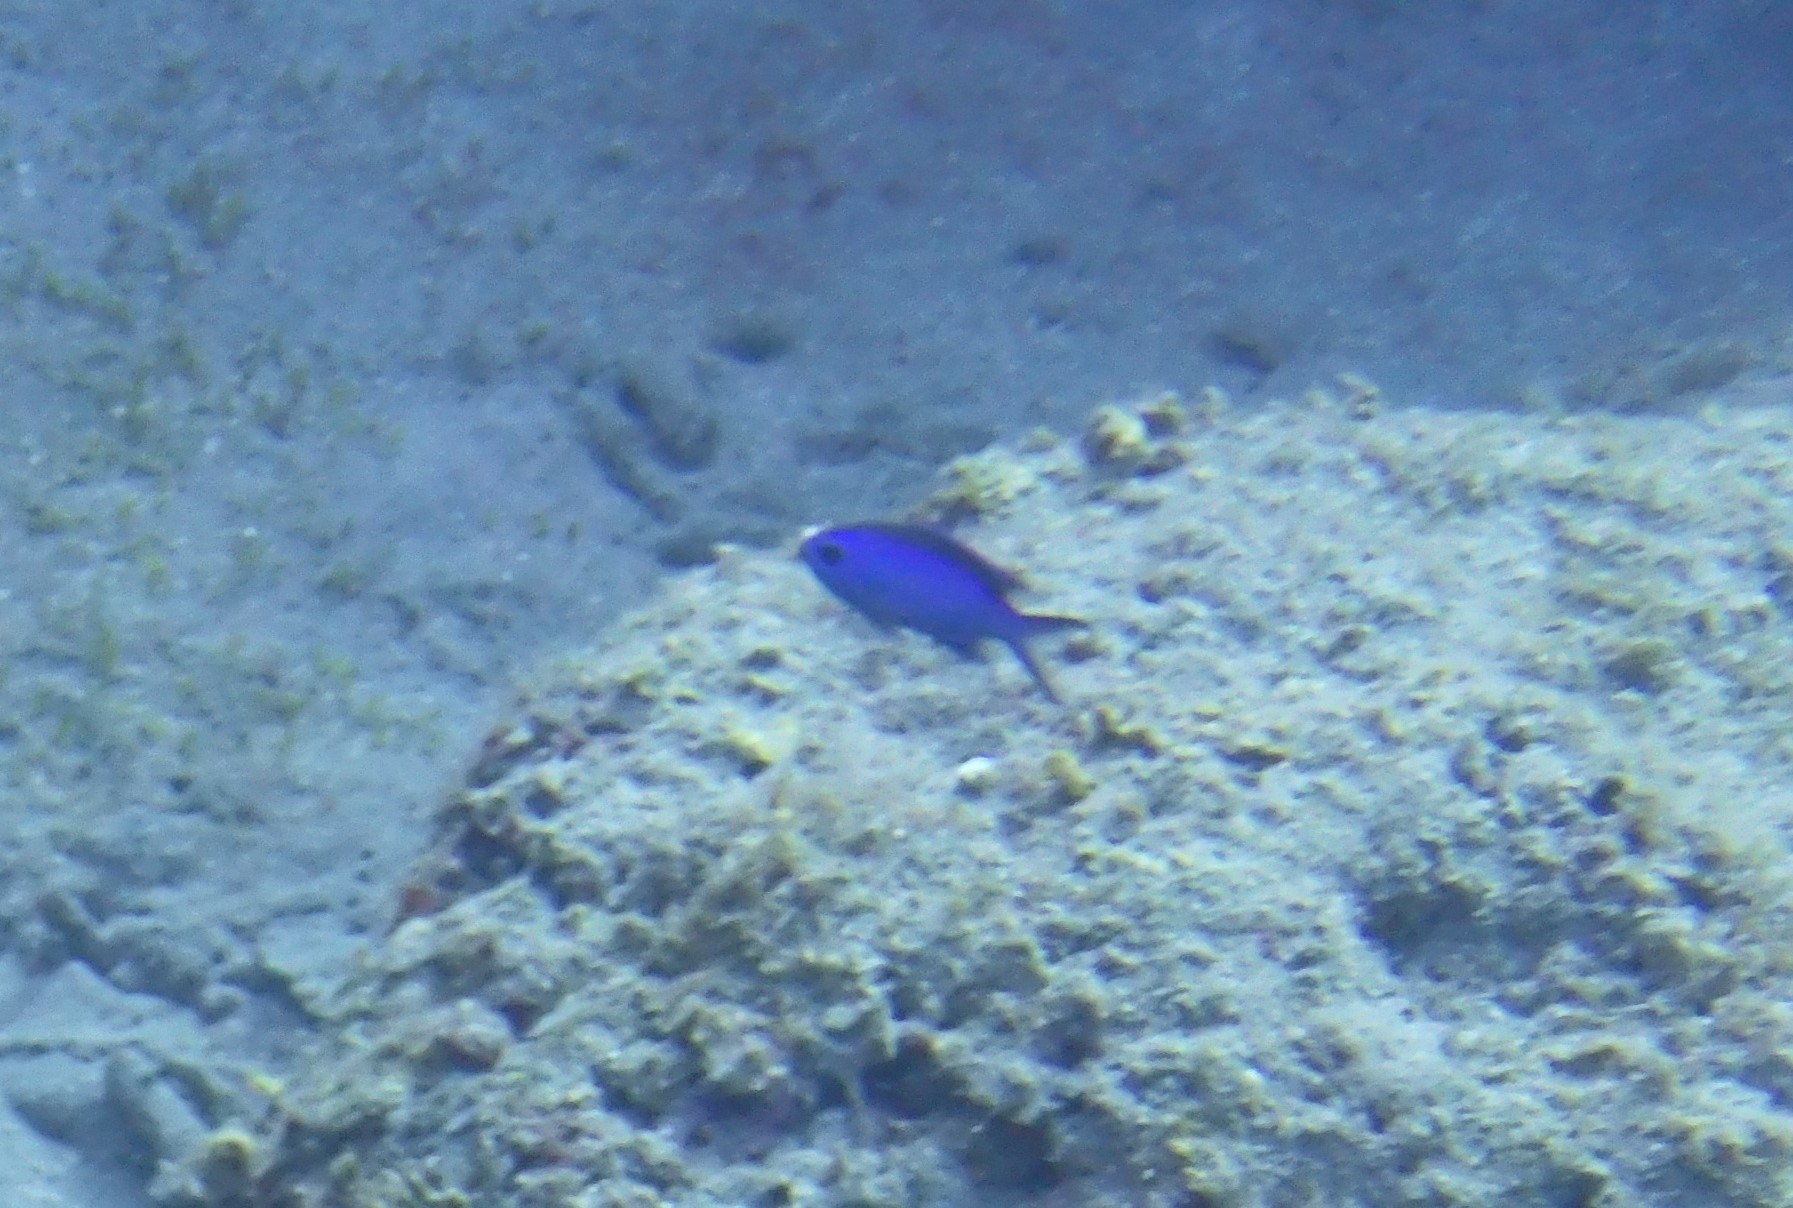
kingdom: Animalia
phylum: Chordata
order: Perciformes
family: Pomacentridae
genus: Chromis
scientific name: Chromis cyanea
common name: Blue chromis
